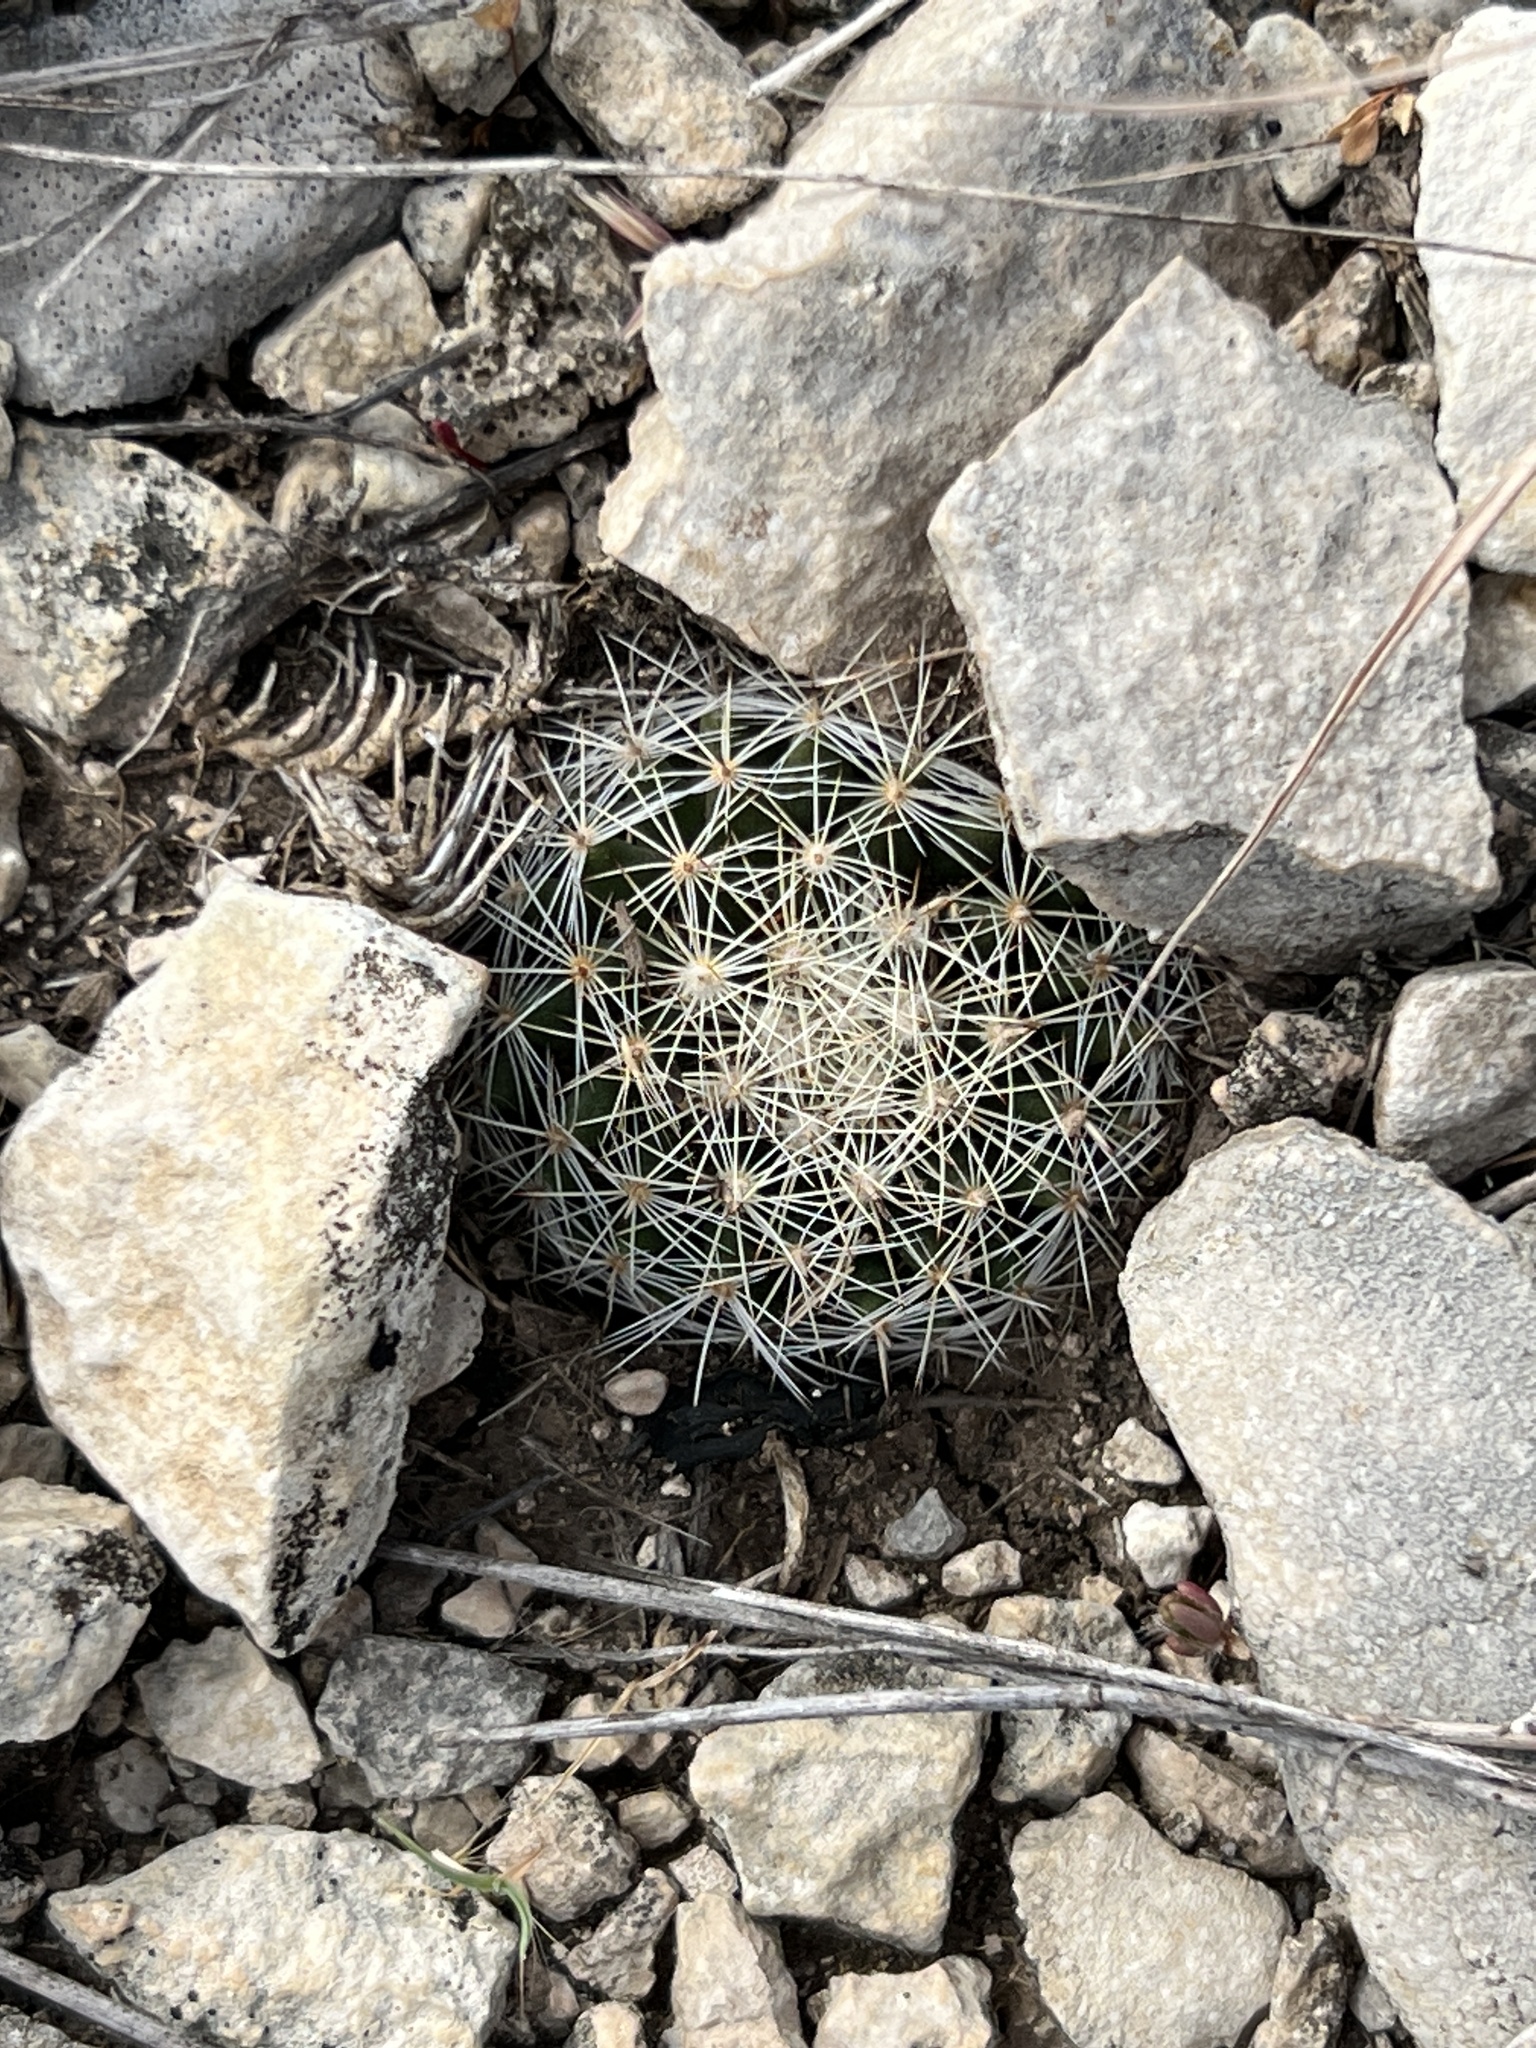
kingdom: Plantae
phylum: Tracheophyta
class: Magnoliopsida
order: Caryophyllales
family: Cactaceae
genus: Mammillaria
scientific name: Mammillaria heyderi
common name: Little nipple cactus
